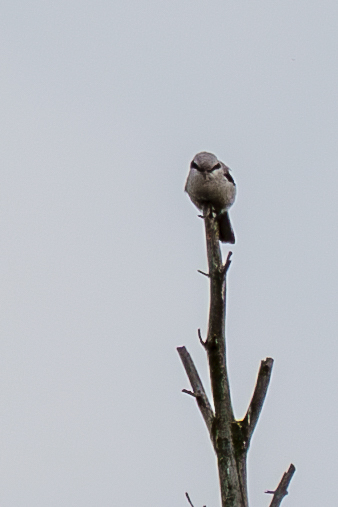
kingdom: Animalia
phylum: Chordata
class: Aves
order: Passeriformes
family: Laniidae
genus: Lanius
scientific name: Lanius excubitor
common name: Great grey shrike
